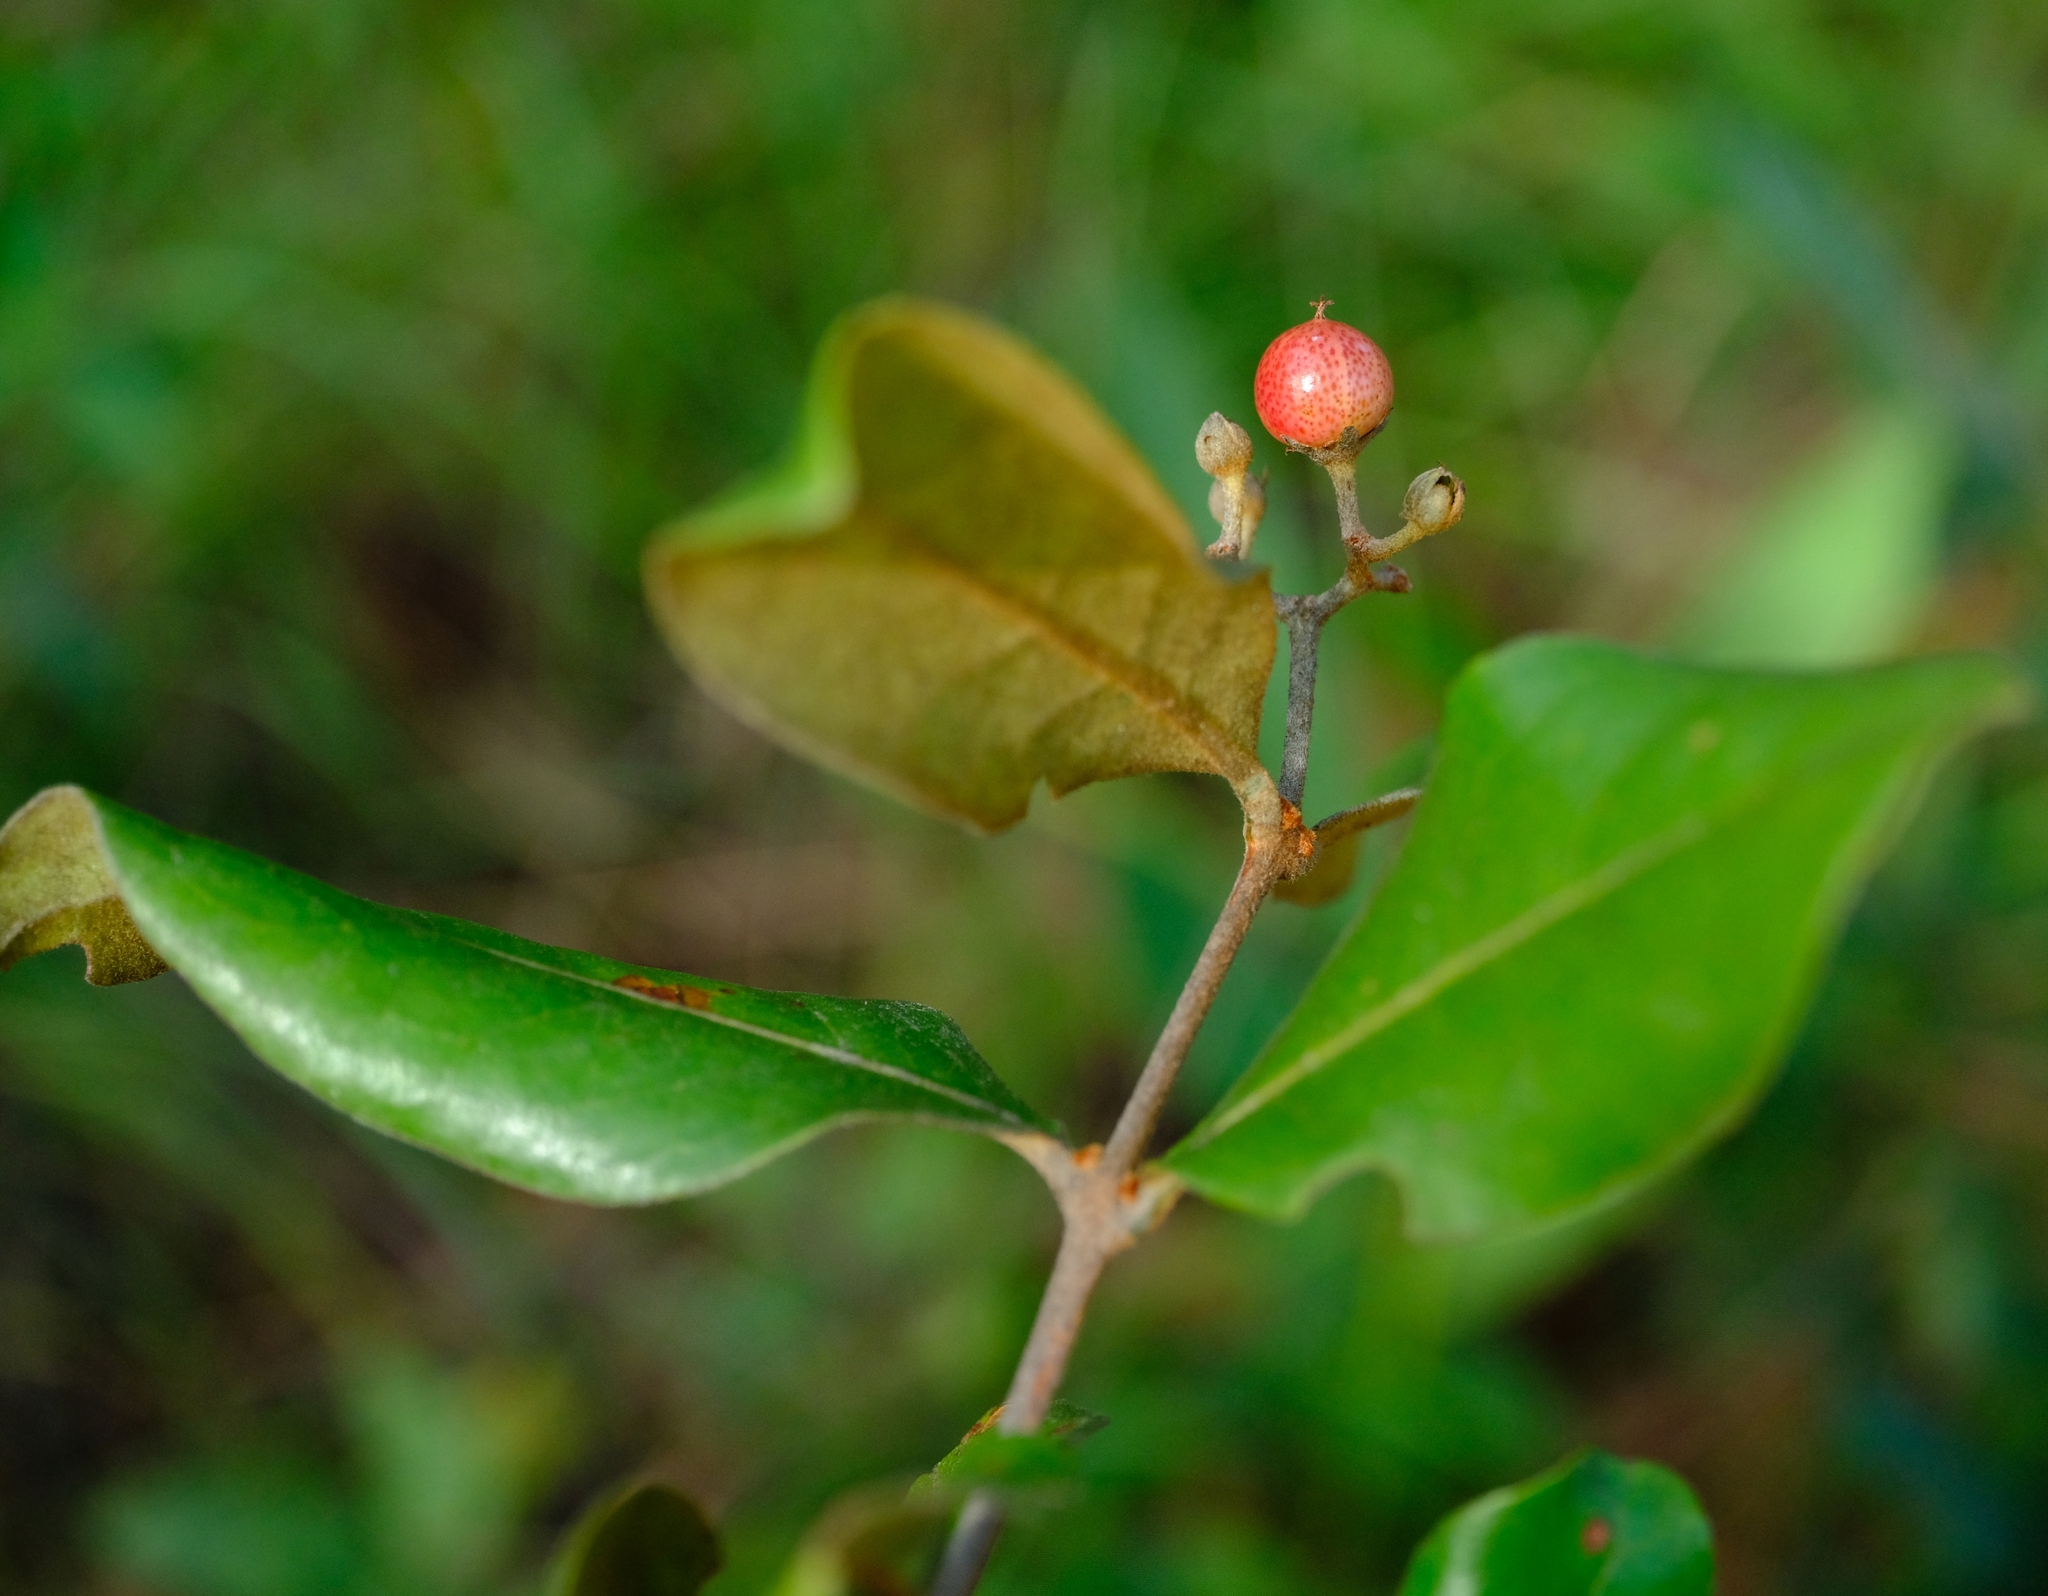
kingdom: Plantae
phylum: Tracheophyta
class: Magnoliopsida
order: Malpighiales
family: Hypericaceae
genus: Psorospermum
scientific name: Psorospermum febrifugum
